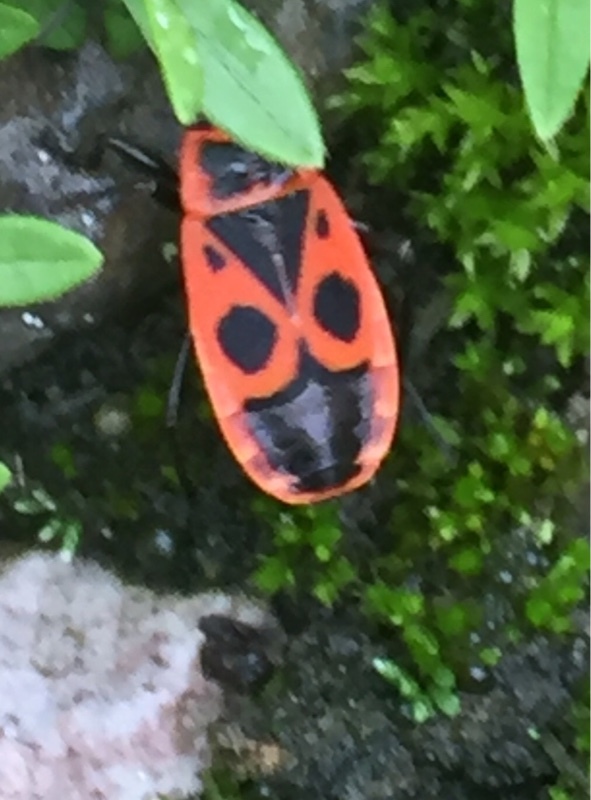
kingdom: Animalia
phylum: Arthropoda
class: Insecta
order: Hemiptera
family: Pyrrhocoridae
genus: Pyrrhocoris
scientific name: Pyrrhocoris apterus
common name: Firebug
